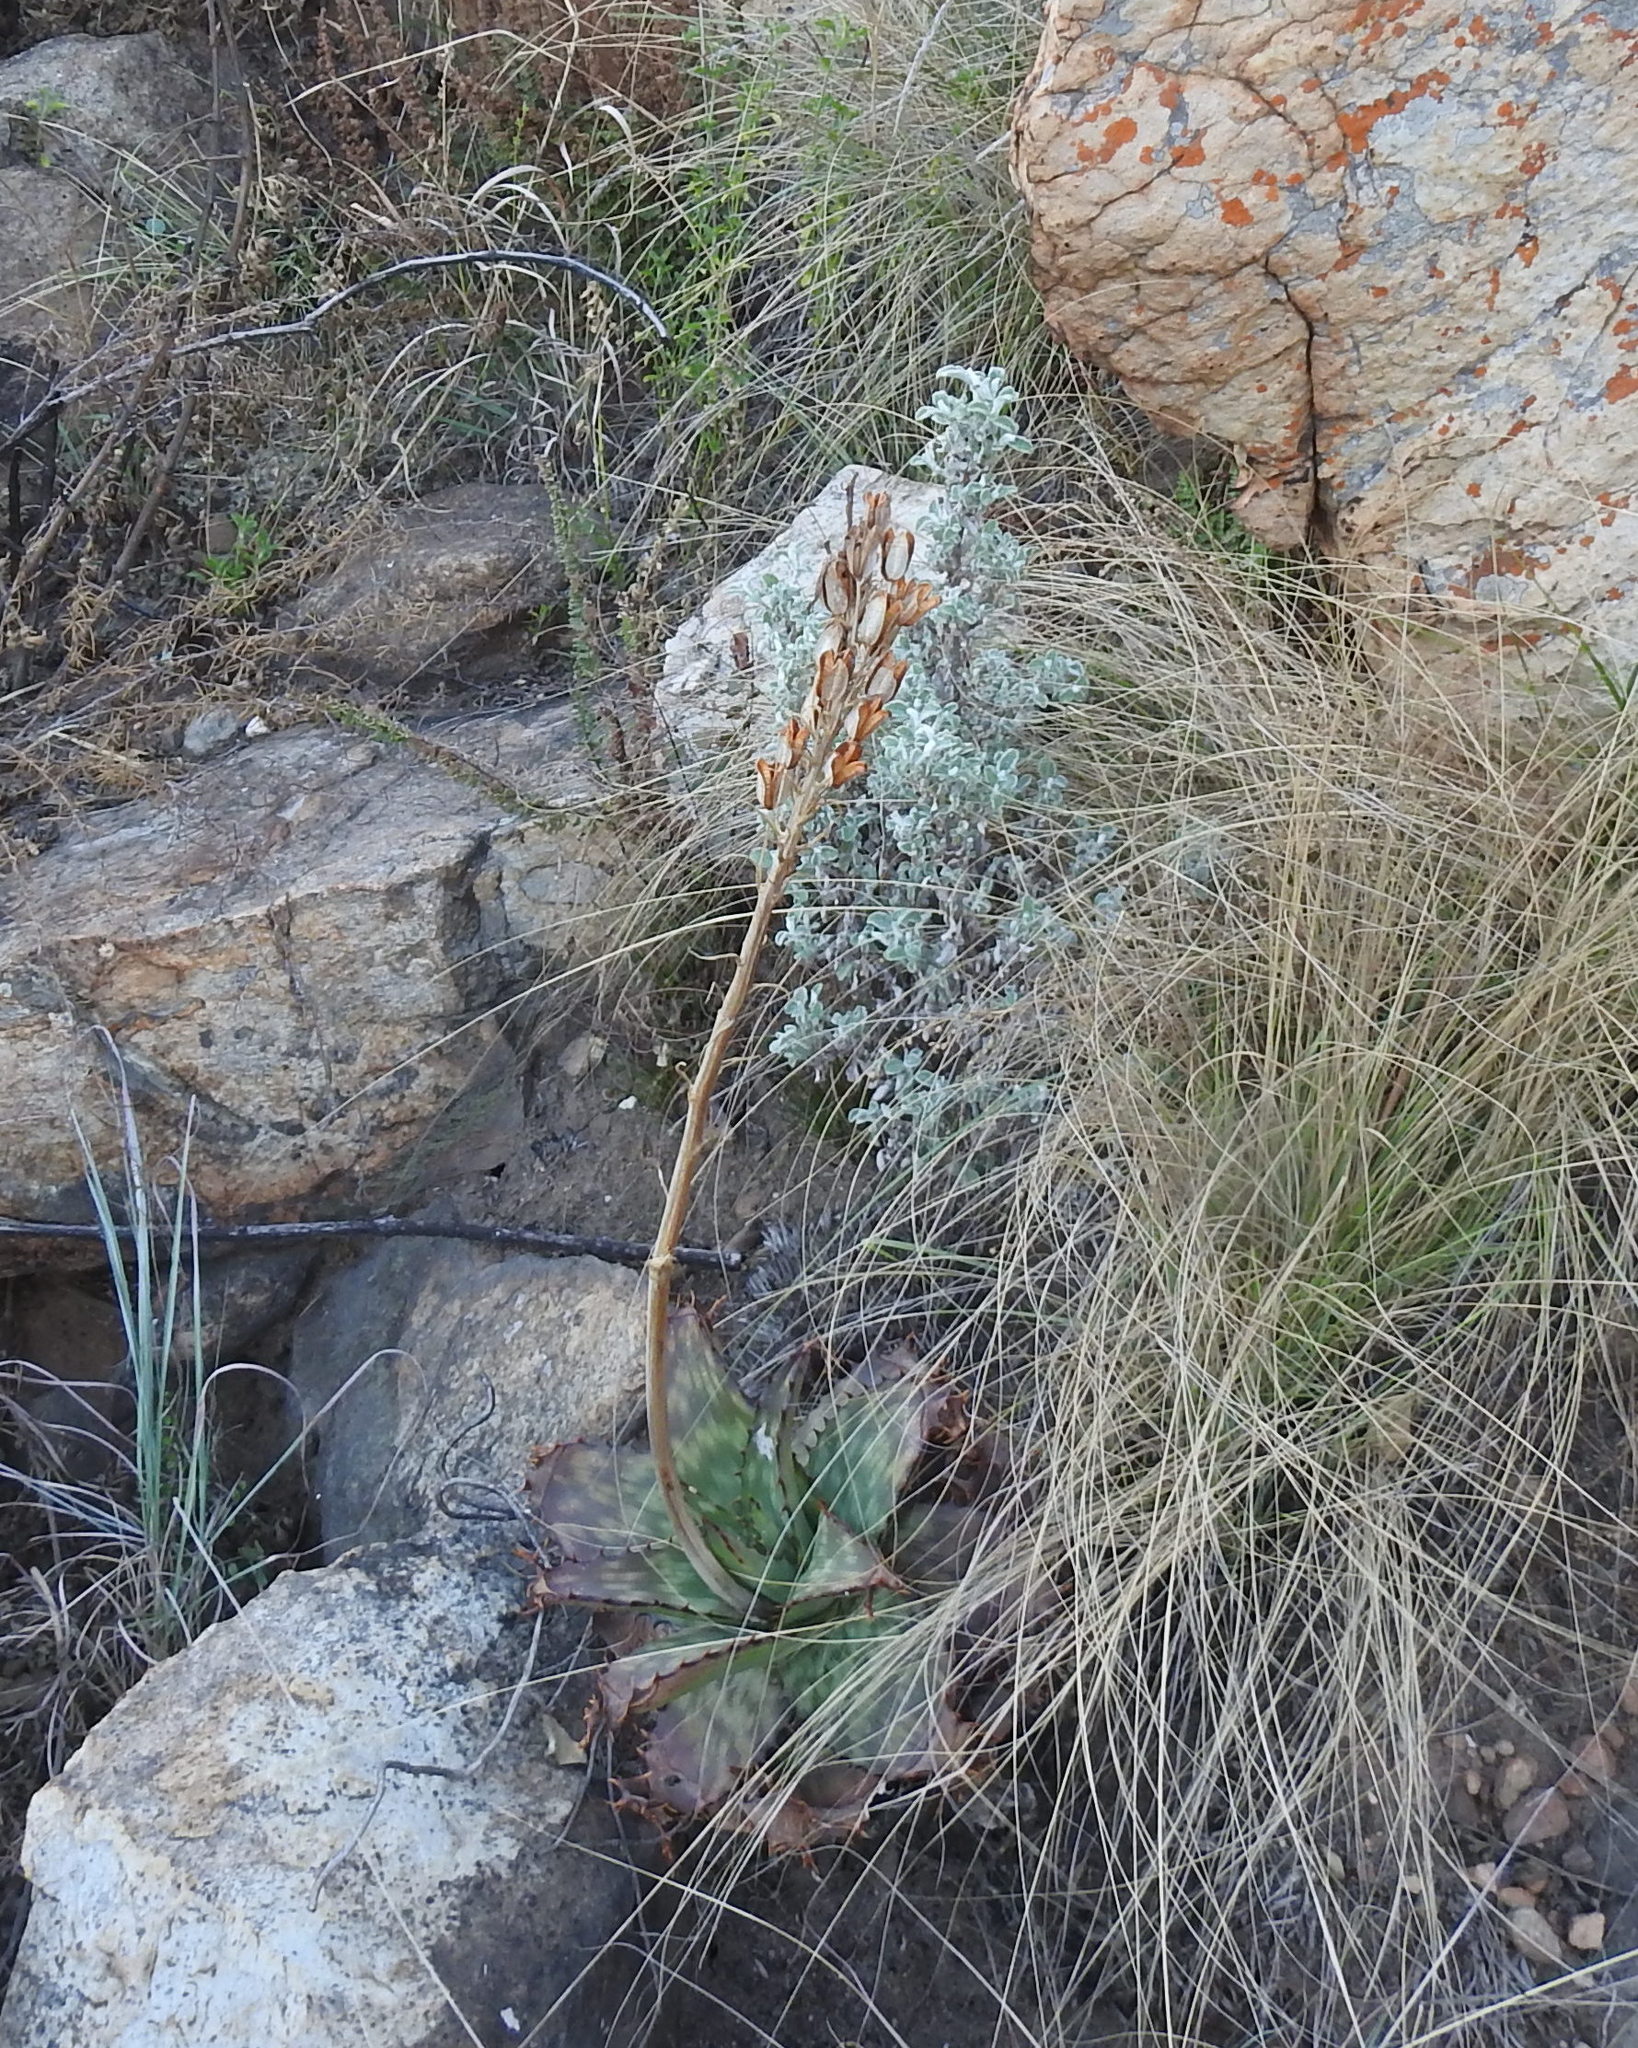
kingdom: Plantae
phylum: Tracheophyta
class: Liliopsida
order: Asparagales
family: Asphodelaceae
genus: Aloe
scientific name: Aloe greatheadii
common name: Greathead's aloe
